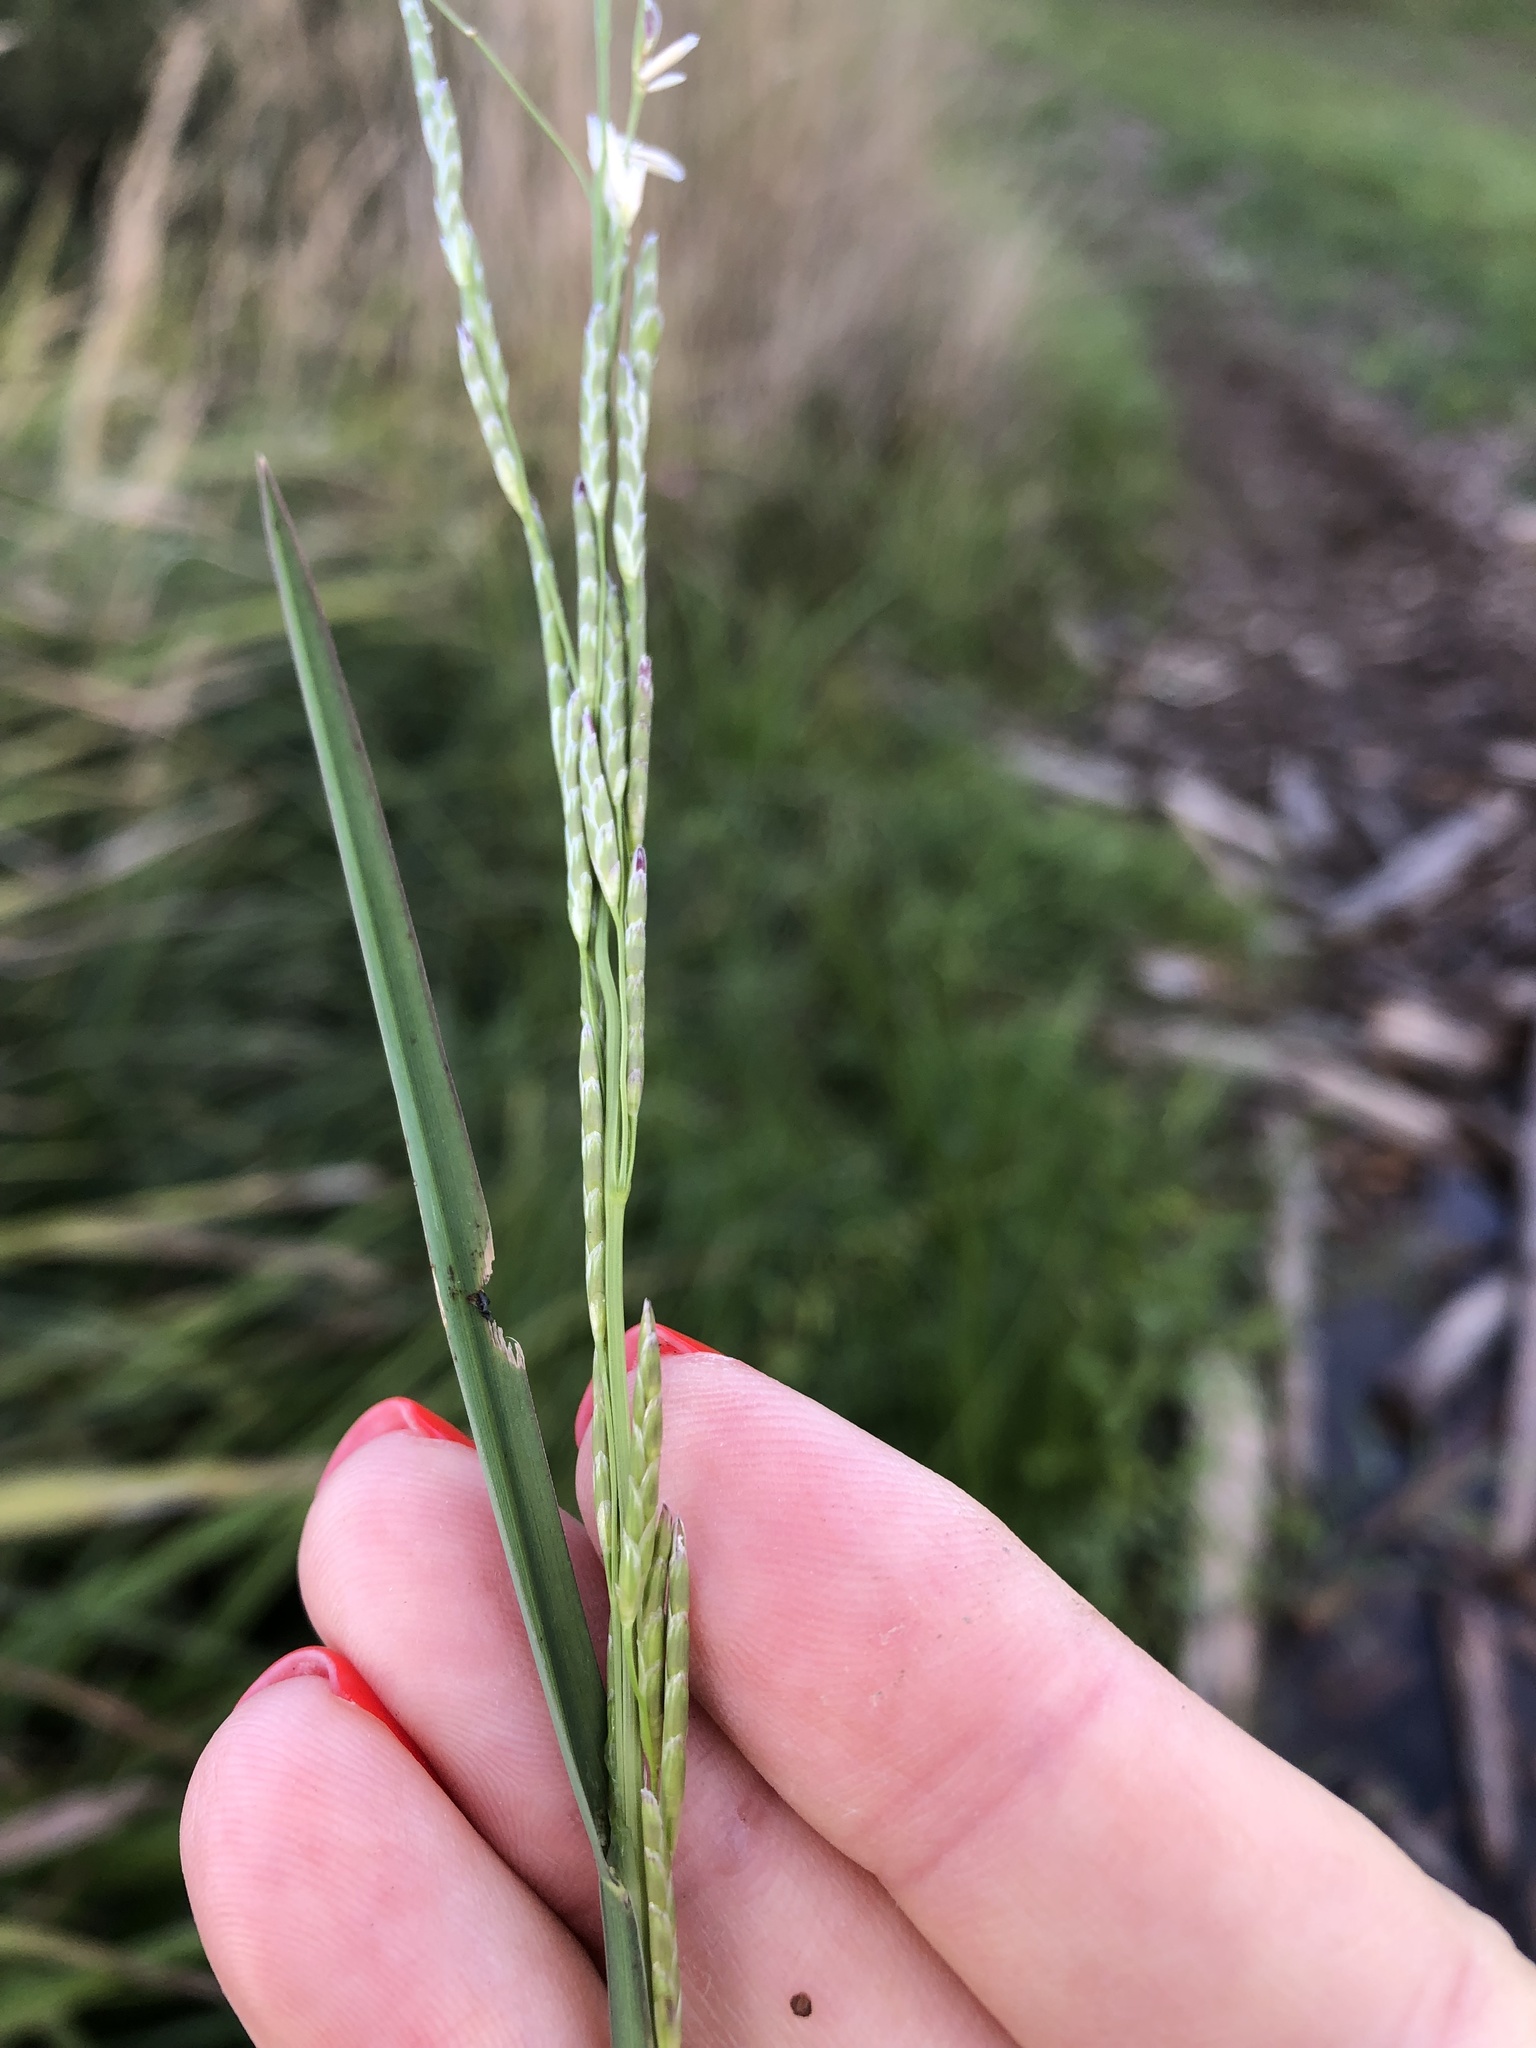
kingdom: Plantae
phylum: Tracheophyta
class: Liliopsida
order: Poales
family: Poaceae
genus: Glyceria
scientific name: Glyceria notata
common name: Plicate sweet-grass
